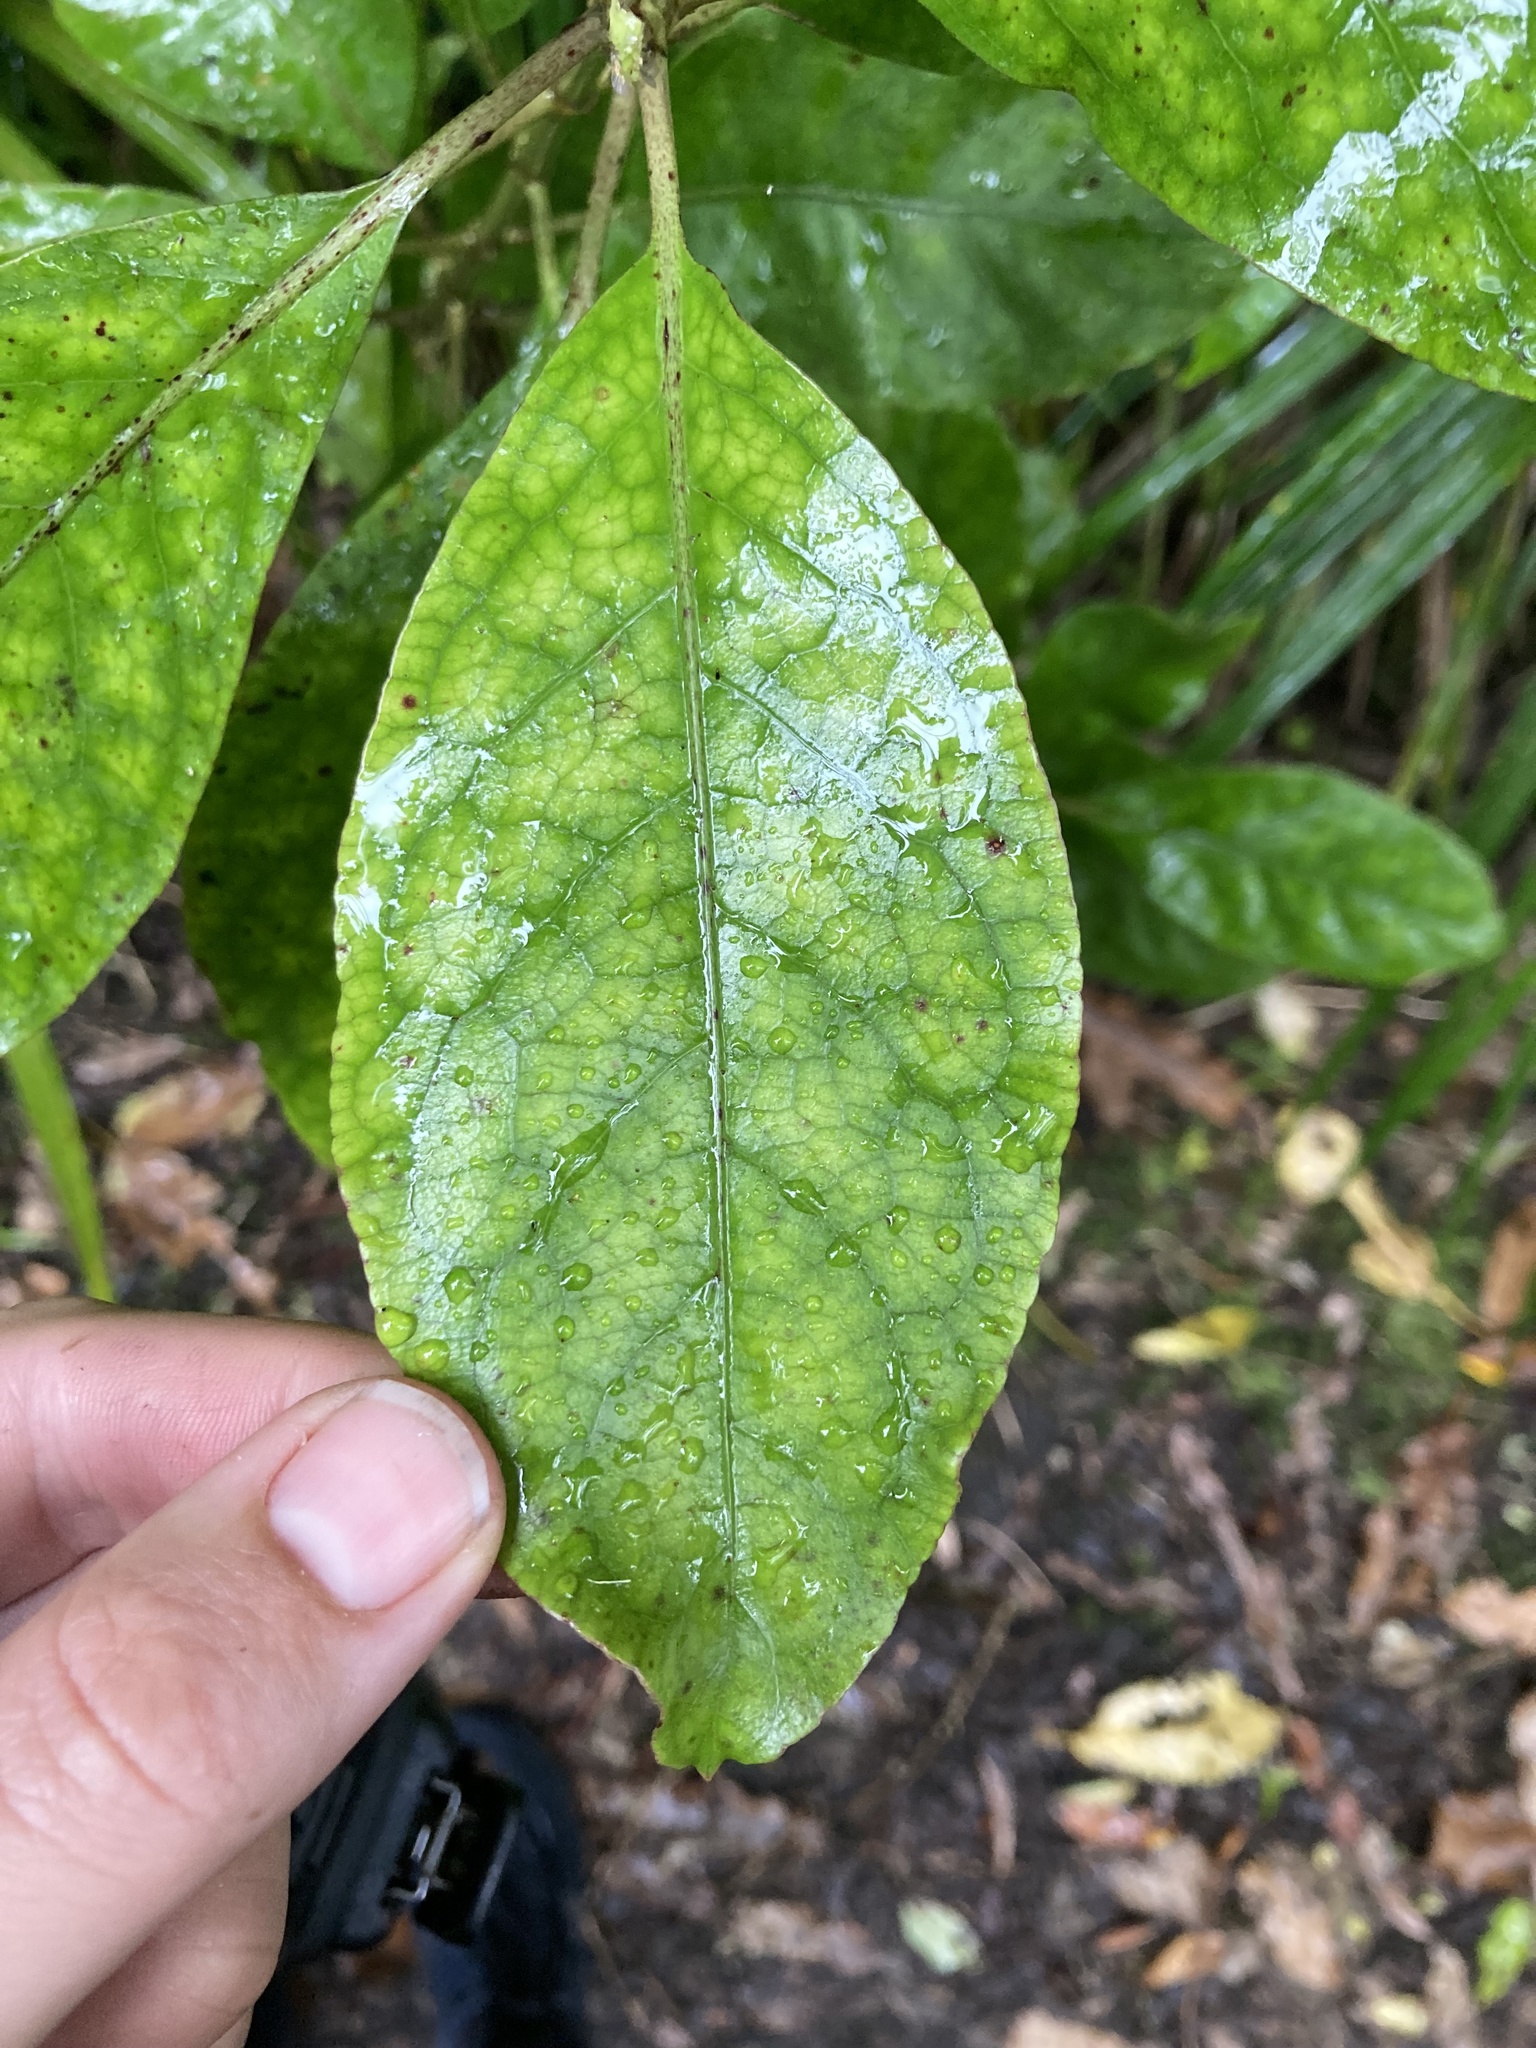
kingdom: Plantae
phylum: Tracheophyta
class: Magnoliopsida
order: Gentianales
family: Rubiaceae
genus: Coprosma
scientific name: Coprosma autumnalis
